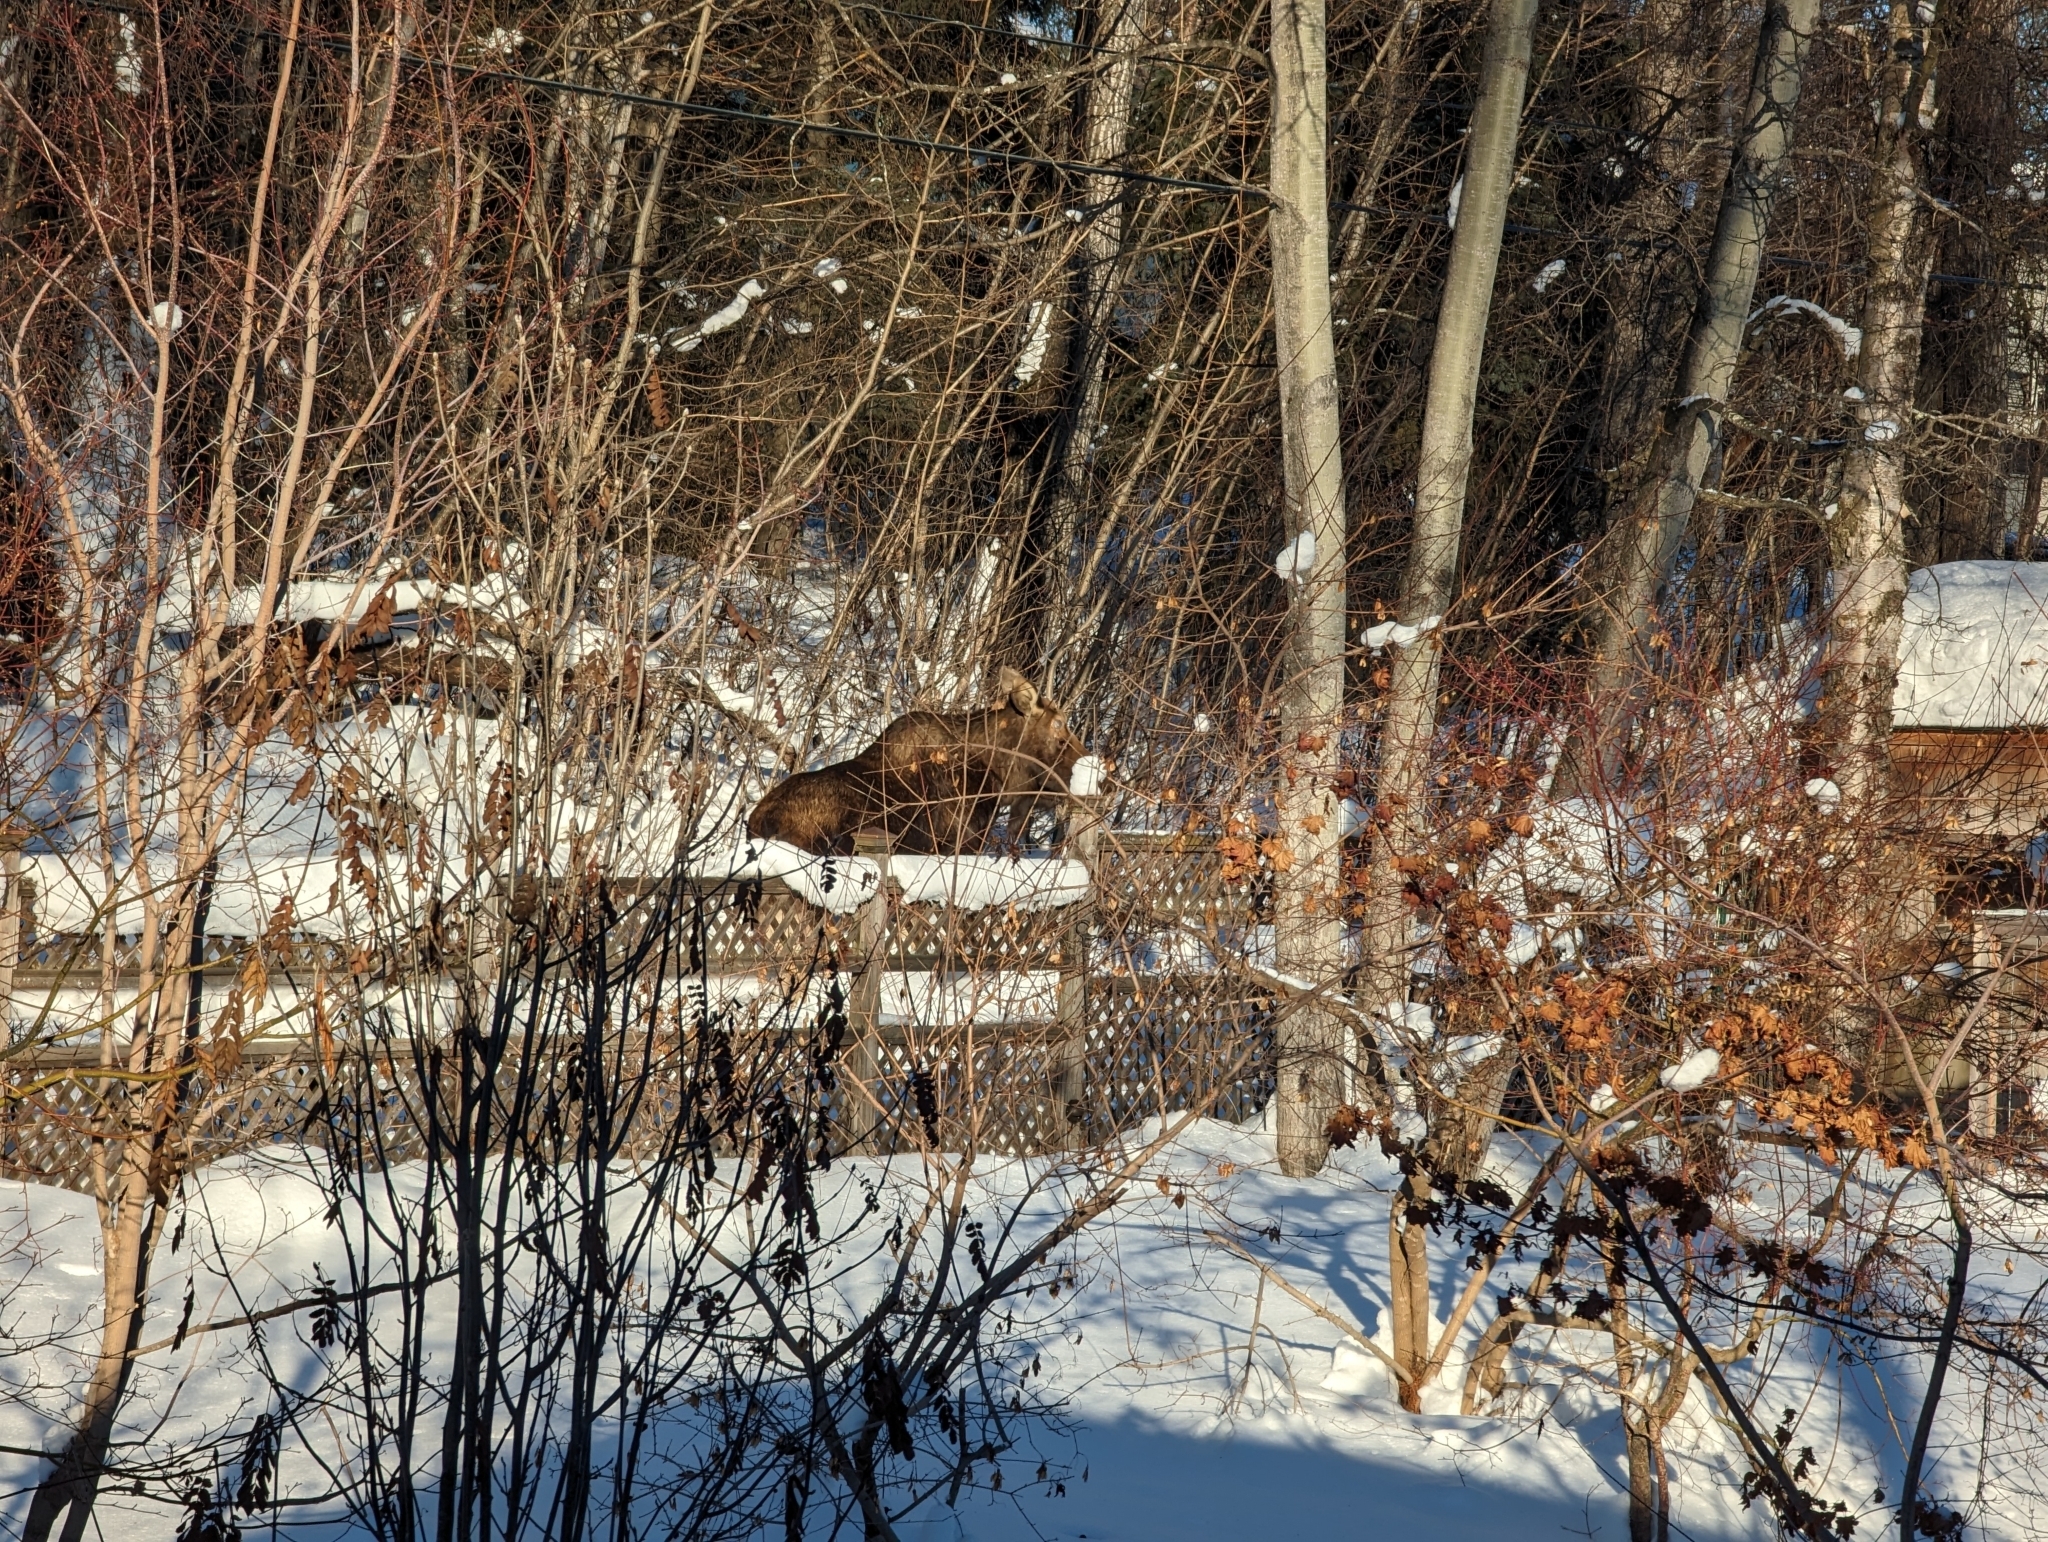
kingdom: Animalia
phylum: Chordata
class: Mammalia
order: Artiodactyla
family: Cervidae
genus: Alces
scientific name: Alces alces
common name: Moose
